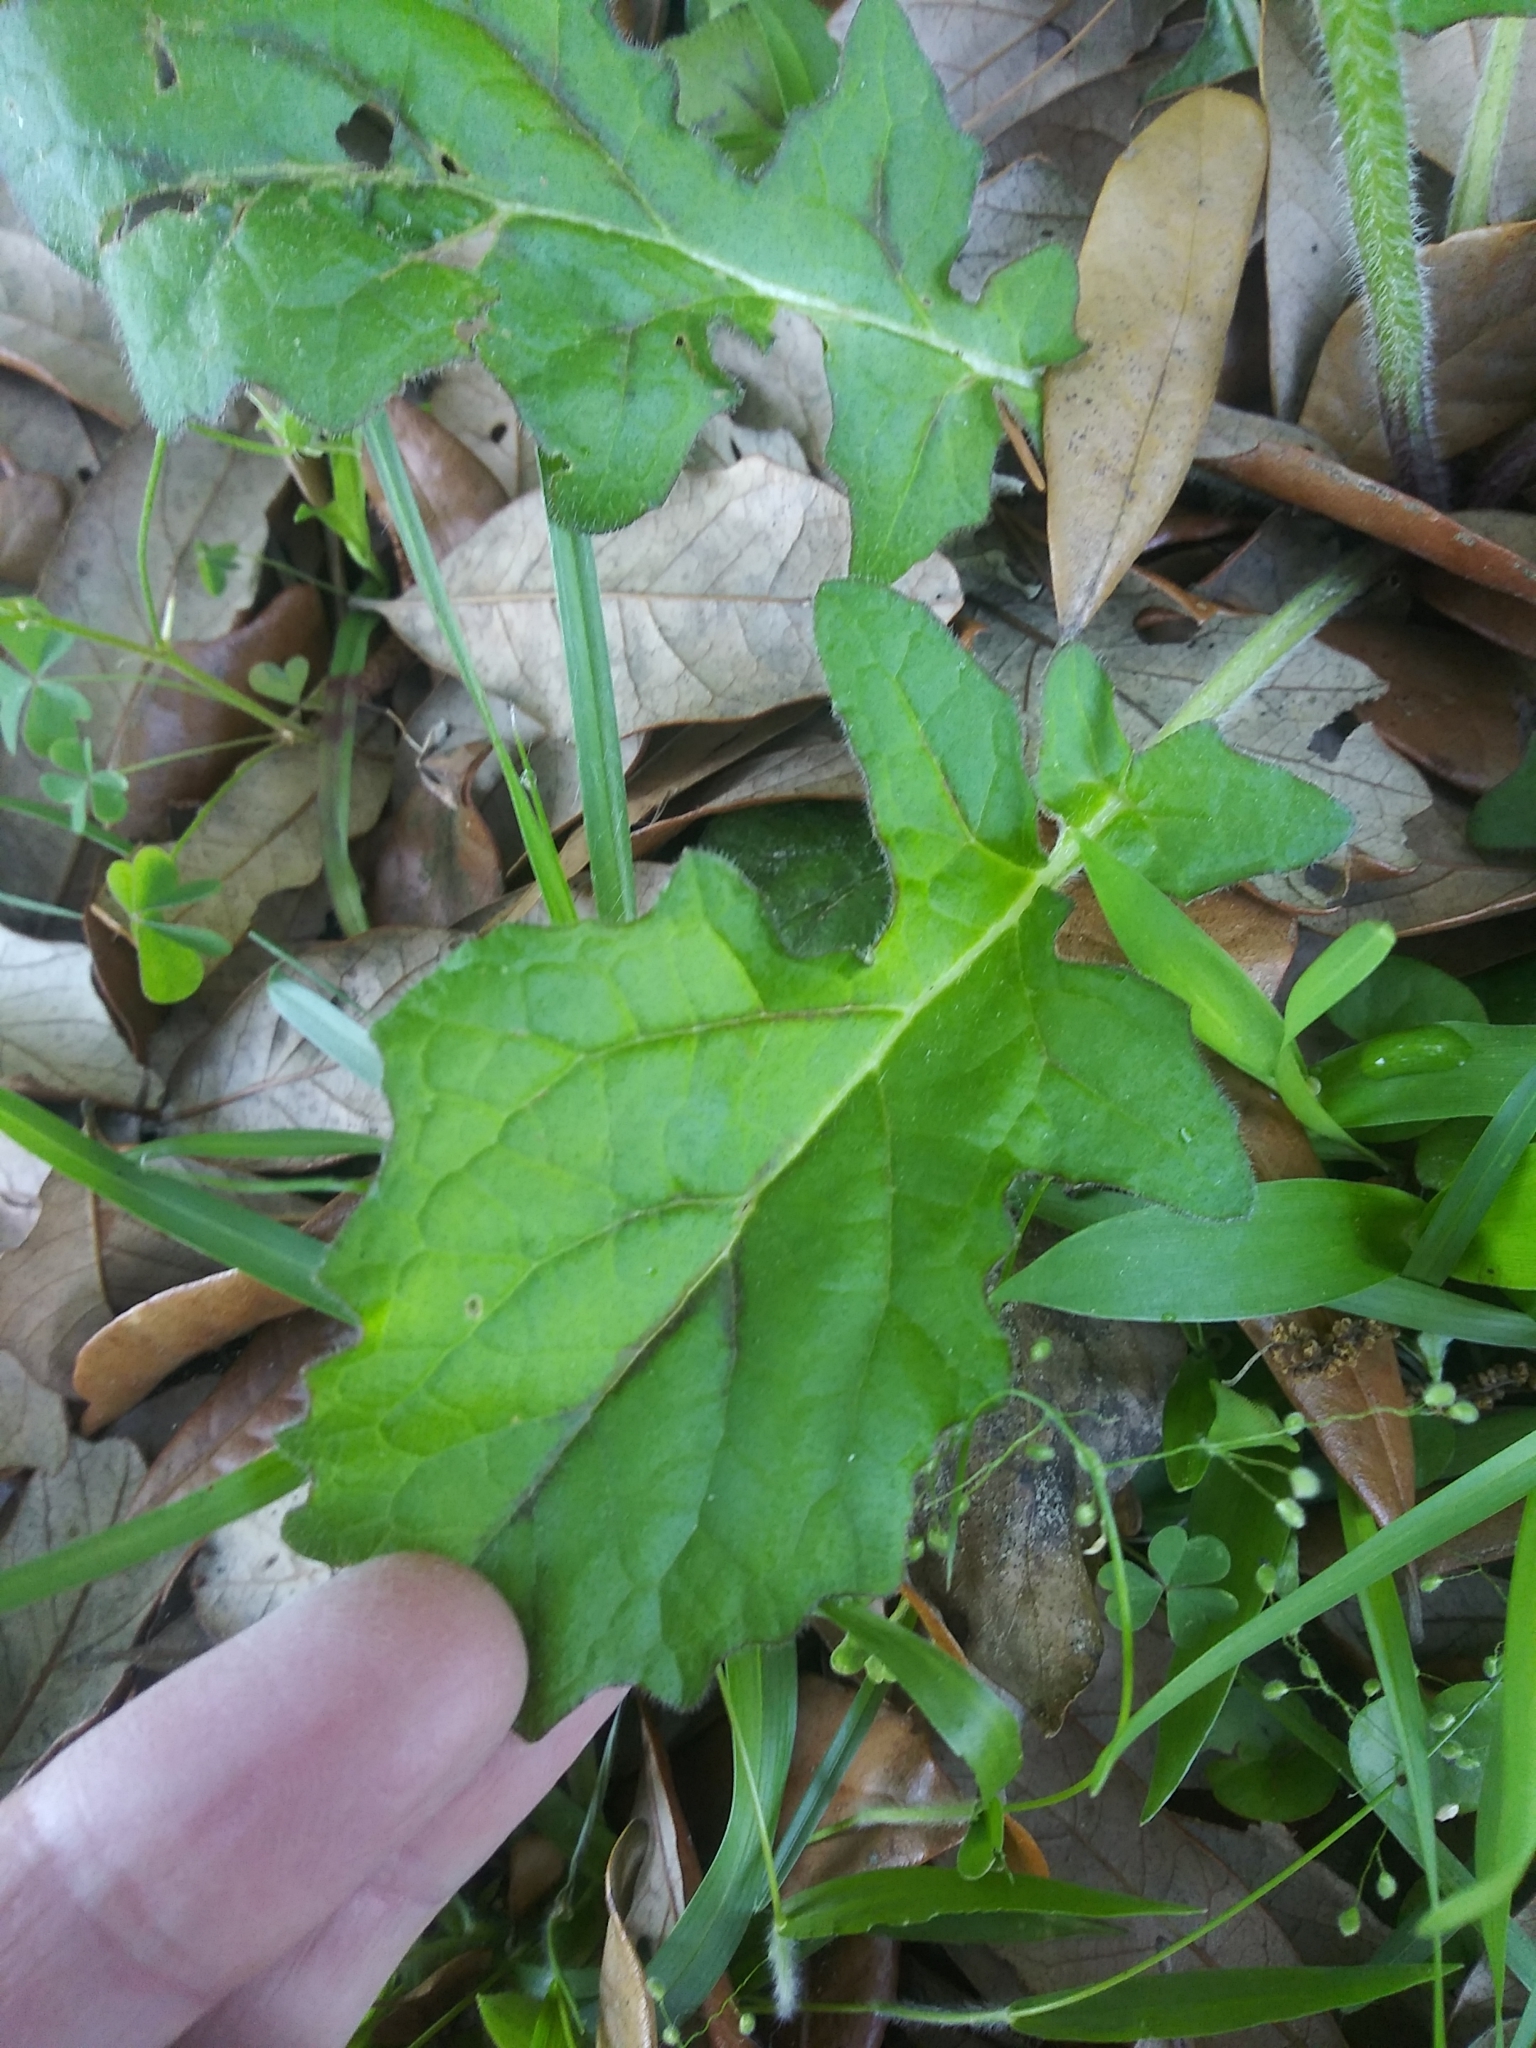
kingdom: Plantae
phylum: Tracheophyta
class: Magnoliopsida
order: Lamiales
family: Lamiaceae
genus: Salvia
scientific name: Salvia lyrata
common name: Cancerweed
